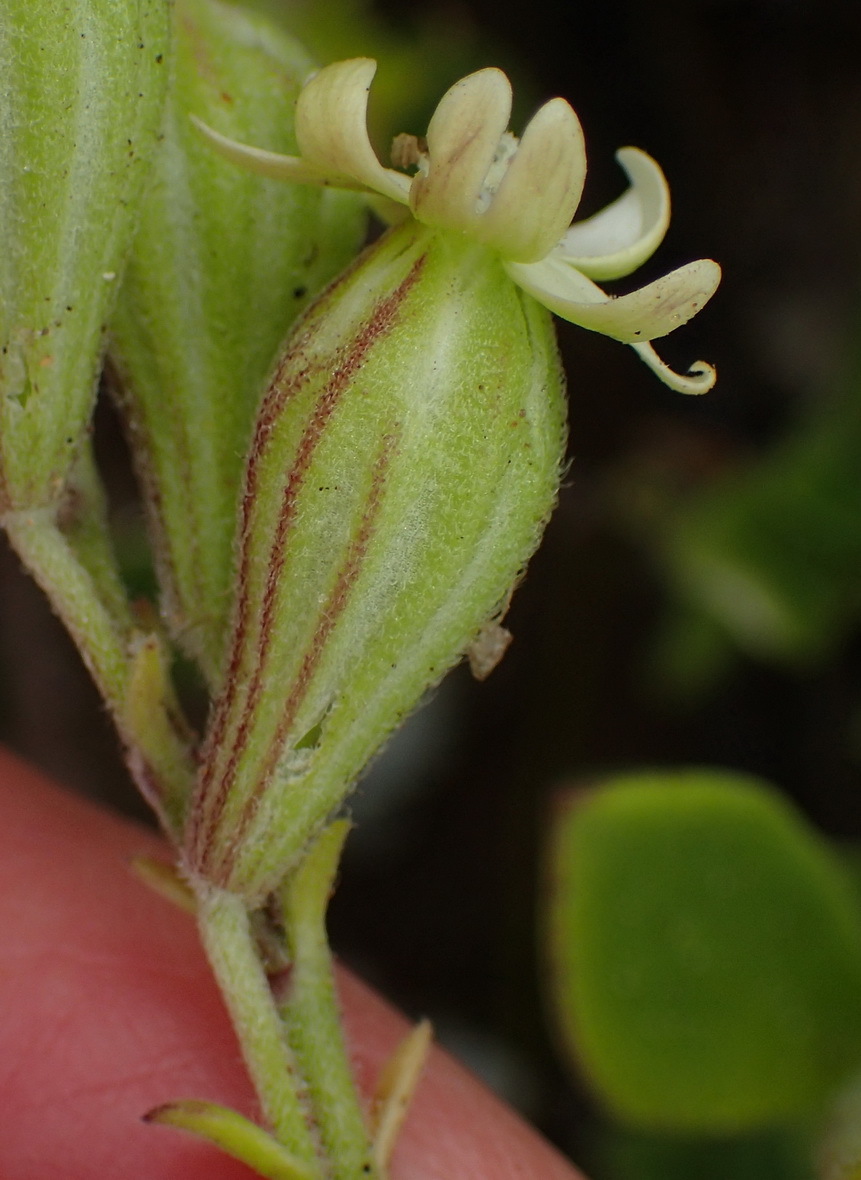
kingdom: Plantae
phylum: Tracheophyta
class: Magnoliopsida
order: Caryophyllales
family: Caryophyllaceae
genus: Silene
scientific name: Silene crassifolia
